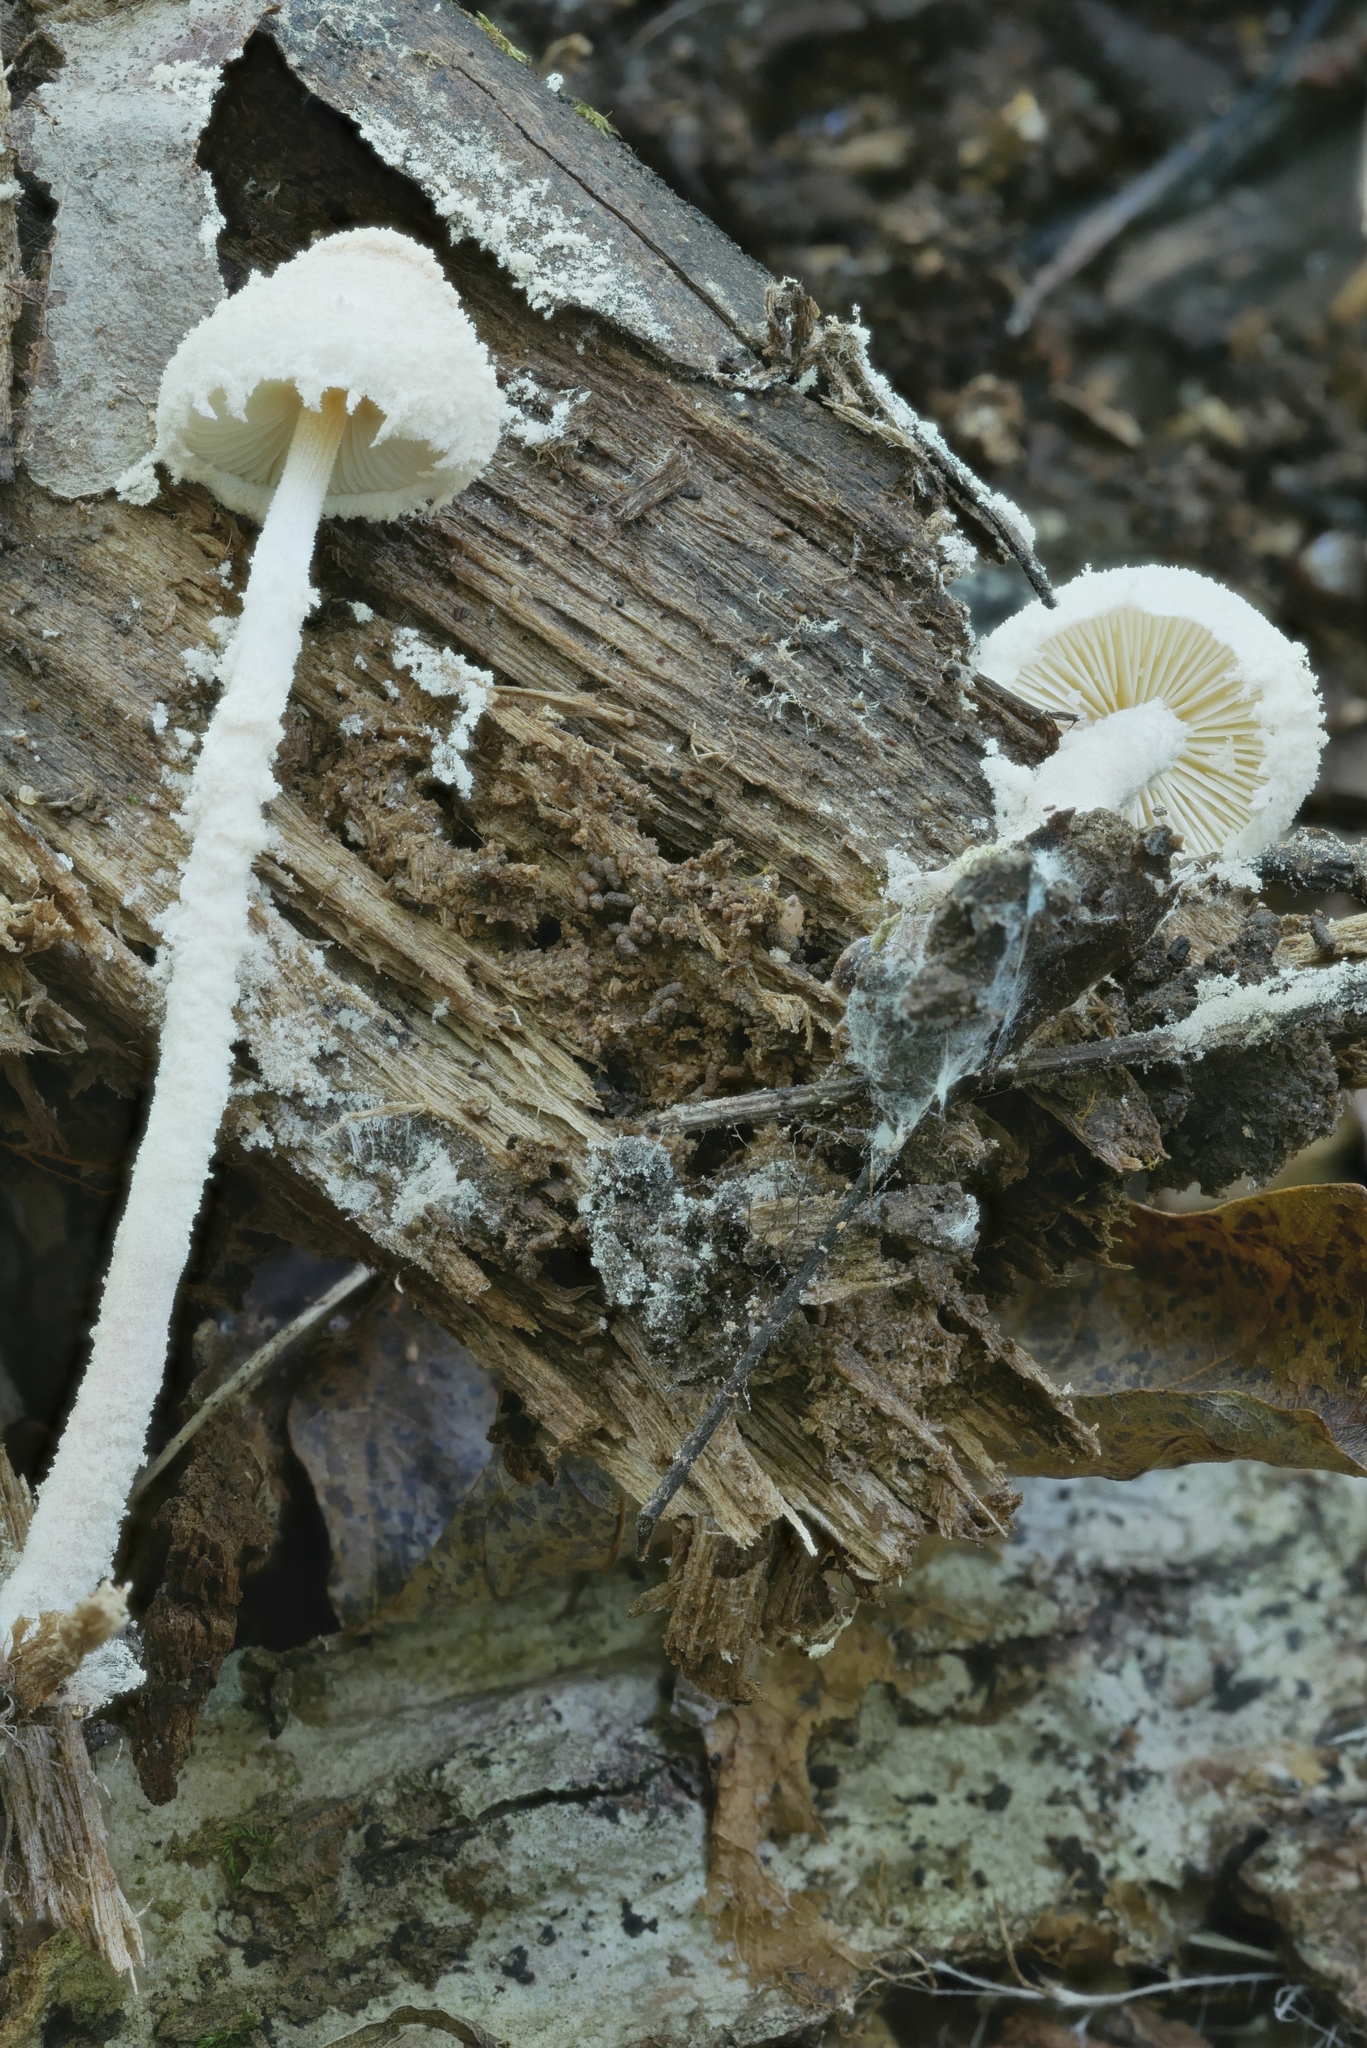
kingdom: Fungi
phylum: Basidiomycota
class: Agaricomycetes
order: Agaricales
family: Agaricaceae
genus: Cystolepiota
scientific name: Cystolepiota sistrata
